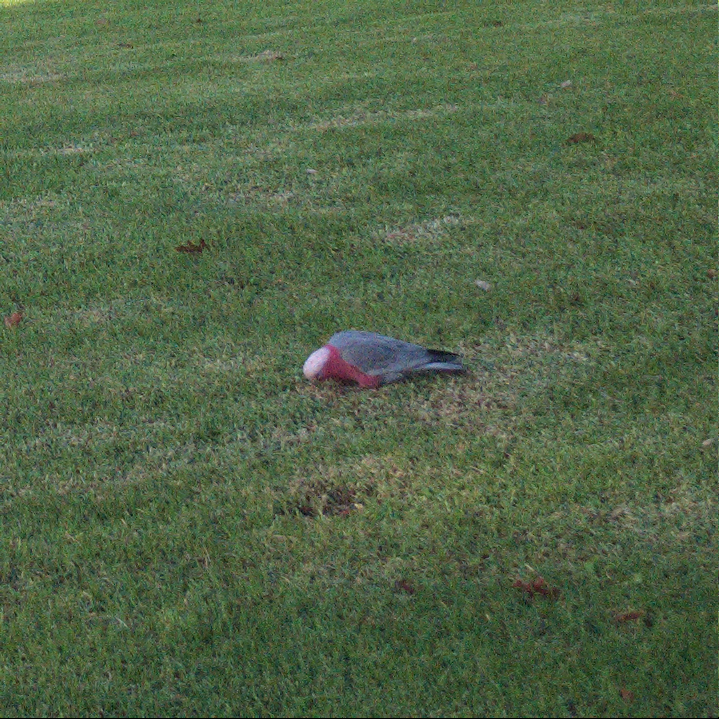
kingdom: Animalia
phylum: Chordata
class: Aves
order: Psittaciformes
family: Psittacidae
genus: Eolophus
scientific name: Eolophus roseicapilla
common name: Galah
